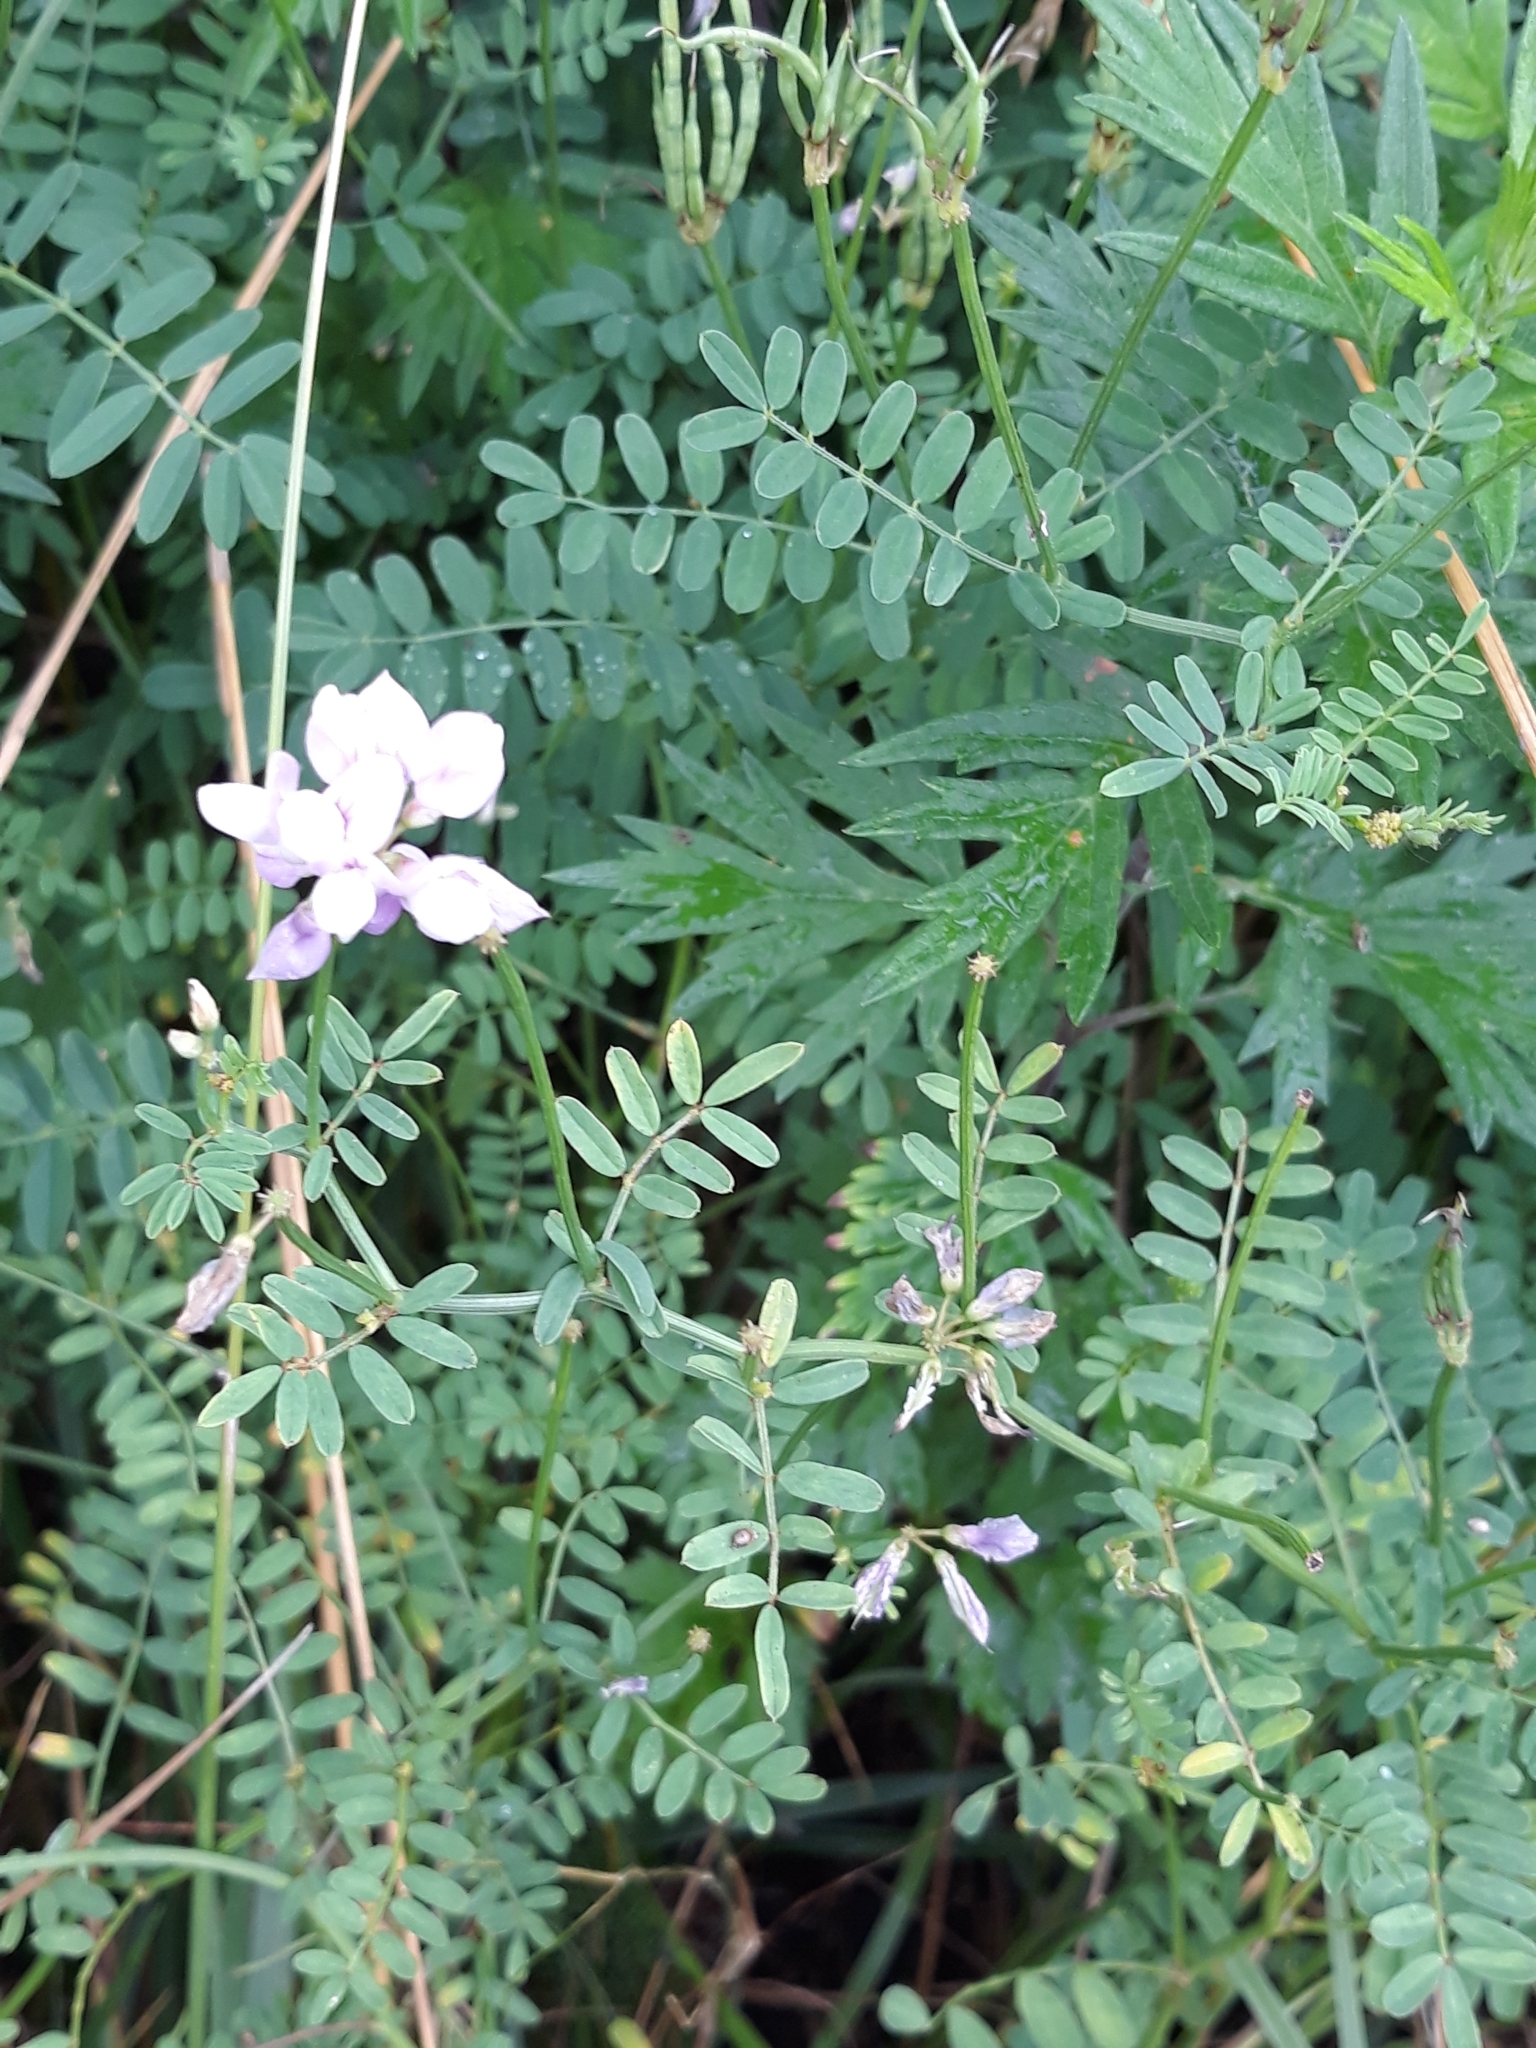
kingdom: Plantae
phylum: Tracheophyta
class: Magnoliopsida
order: Fabales
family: Fabaceae
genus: Coronilla
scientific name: Coronilla varia
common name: Crownvetch
